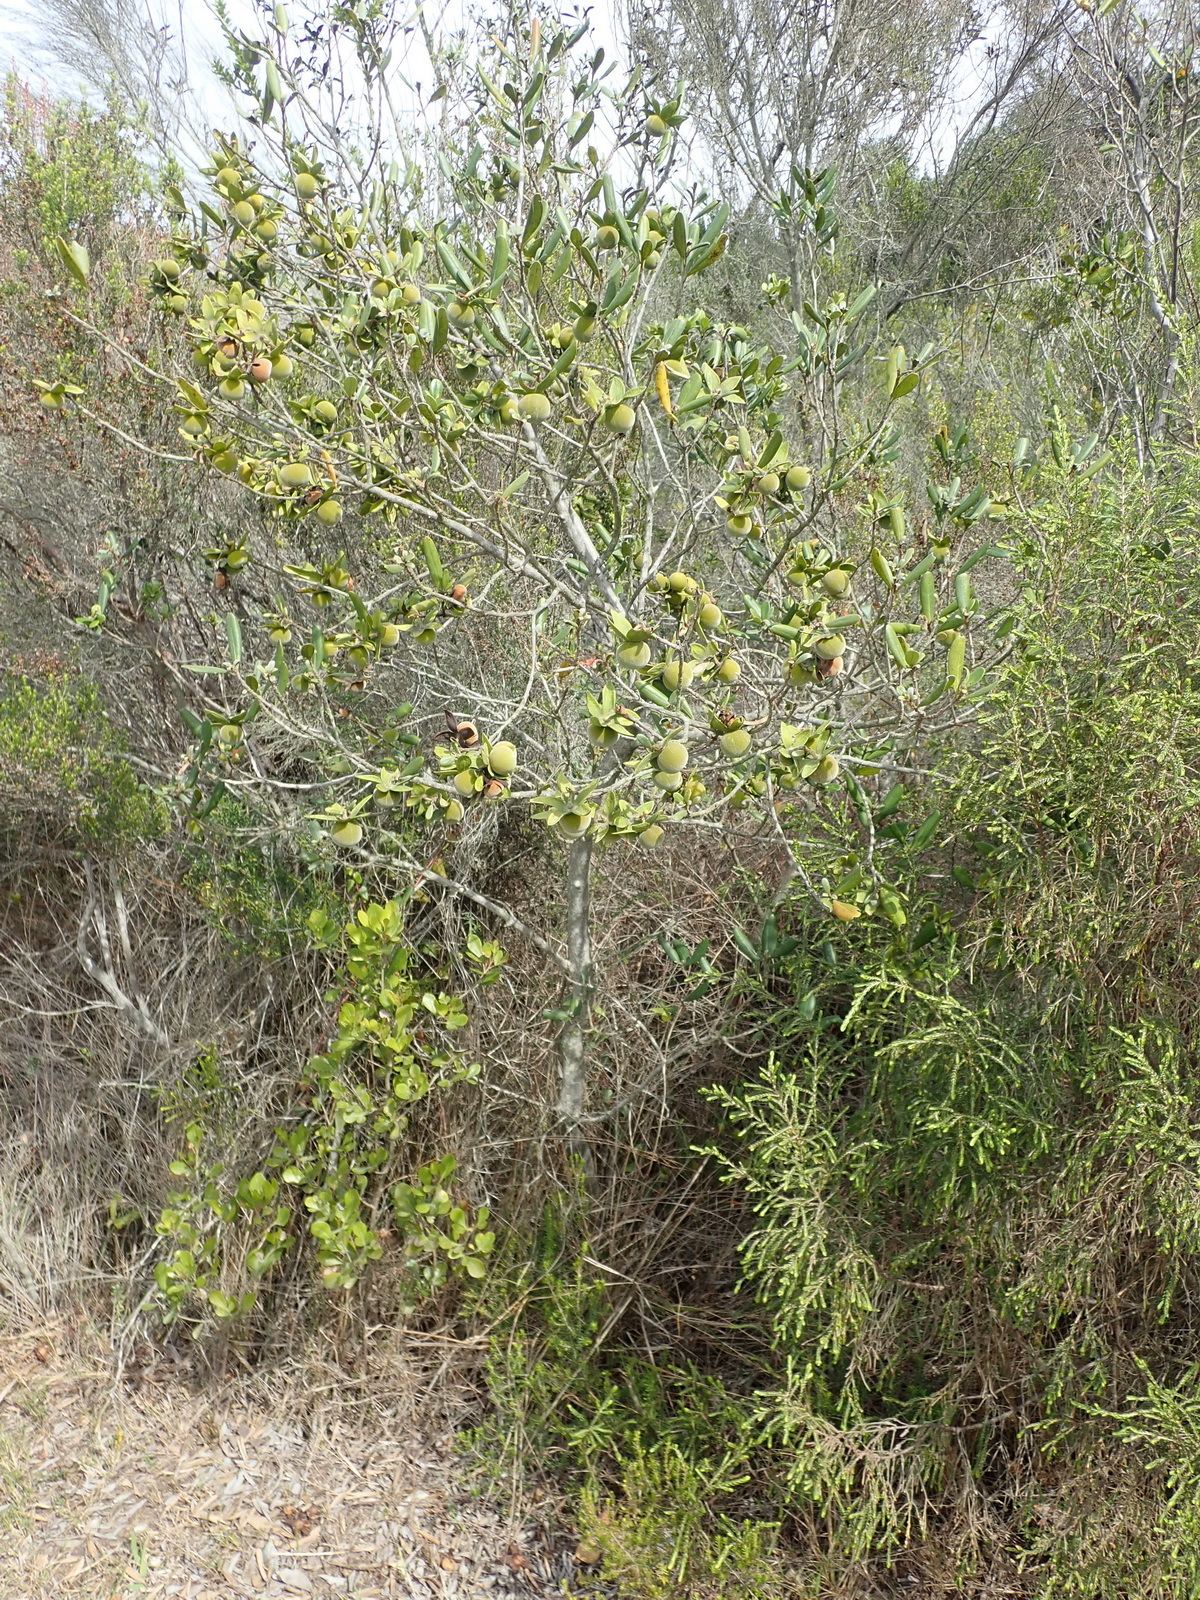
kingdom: Plantae
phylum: Tracheophyta
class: Magnoliopsida
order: Ericales
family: Ebenaceae
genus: Diospyros
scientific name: Diospyros dichrophylla
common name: Common star-apple
